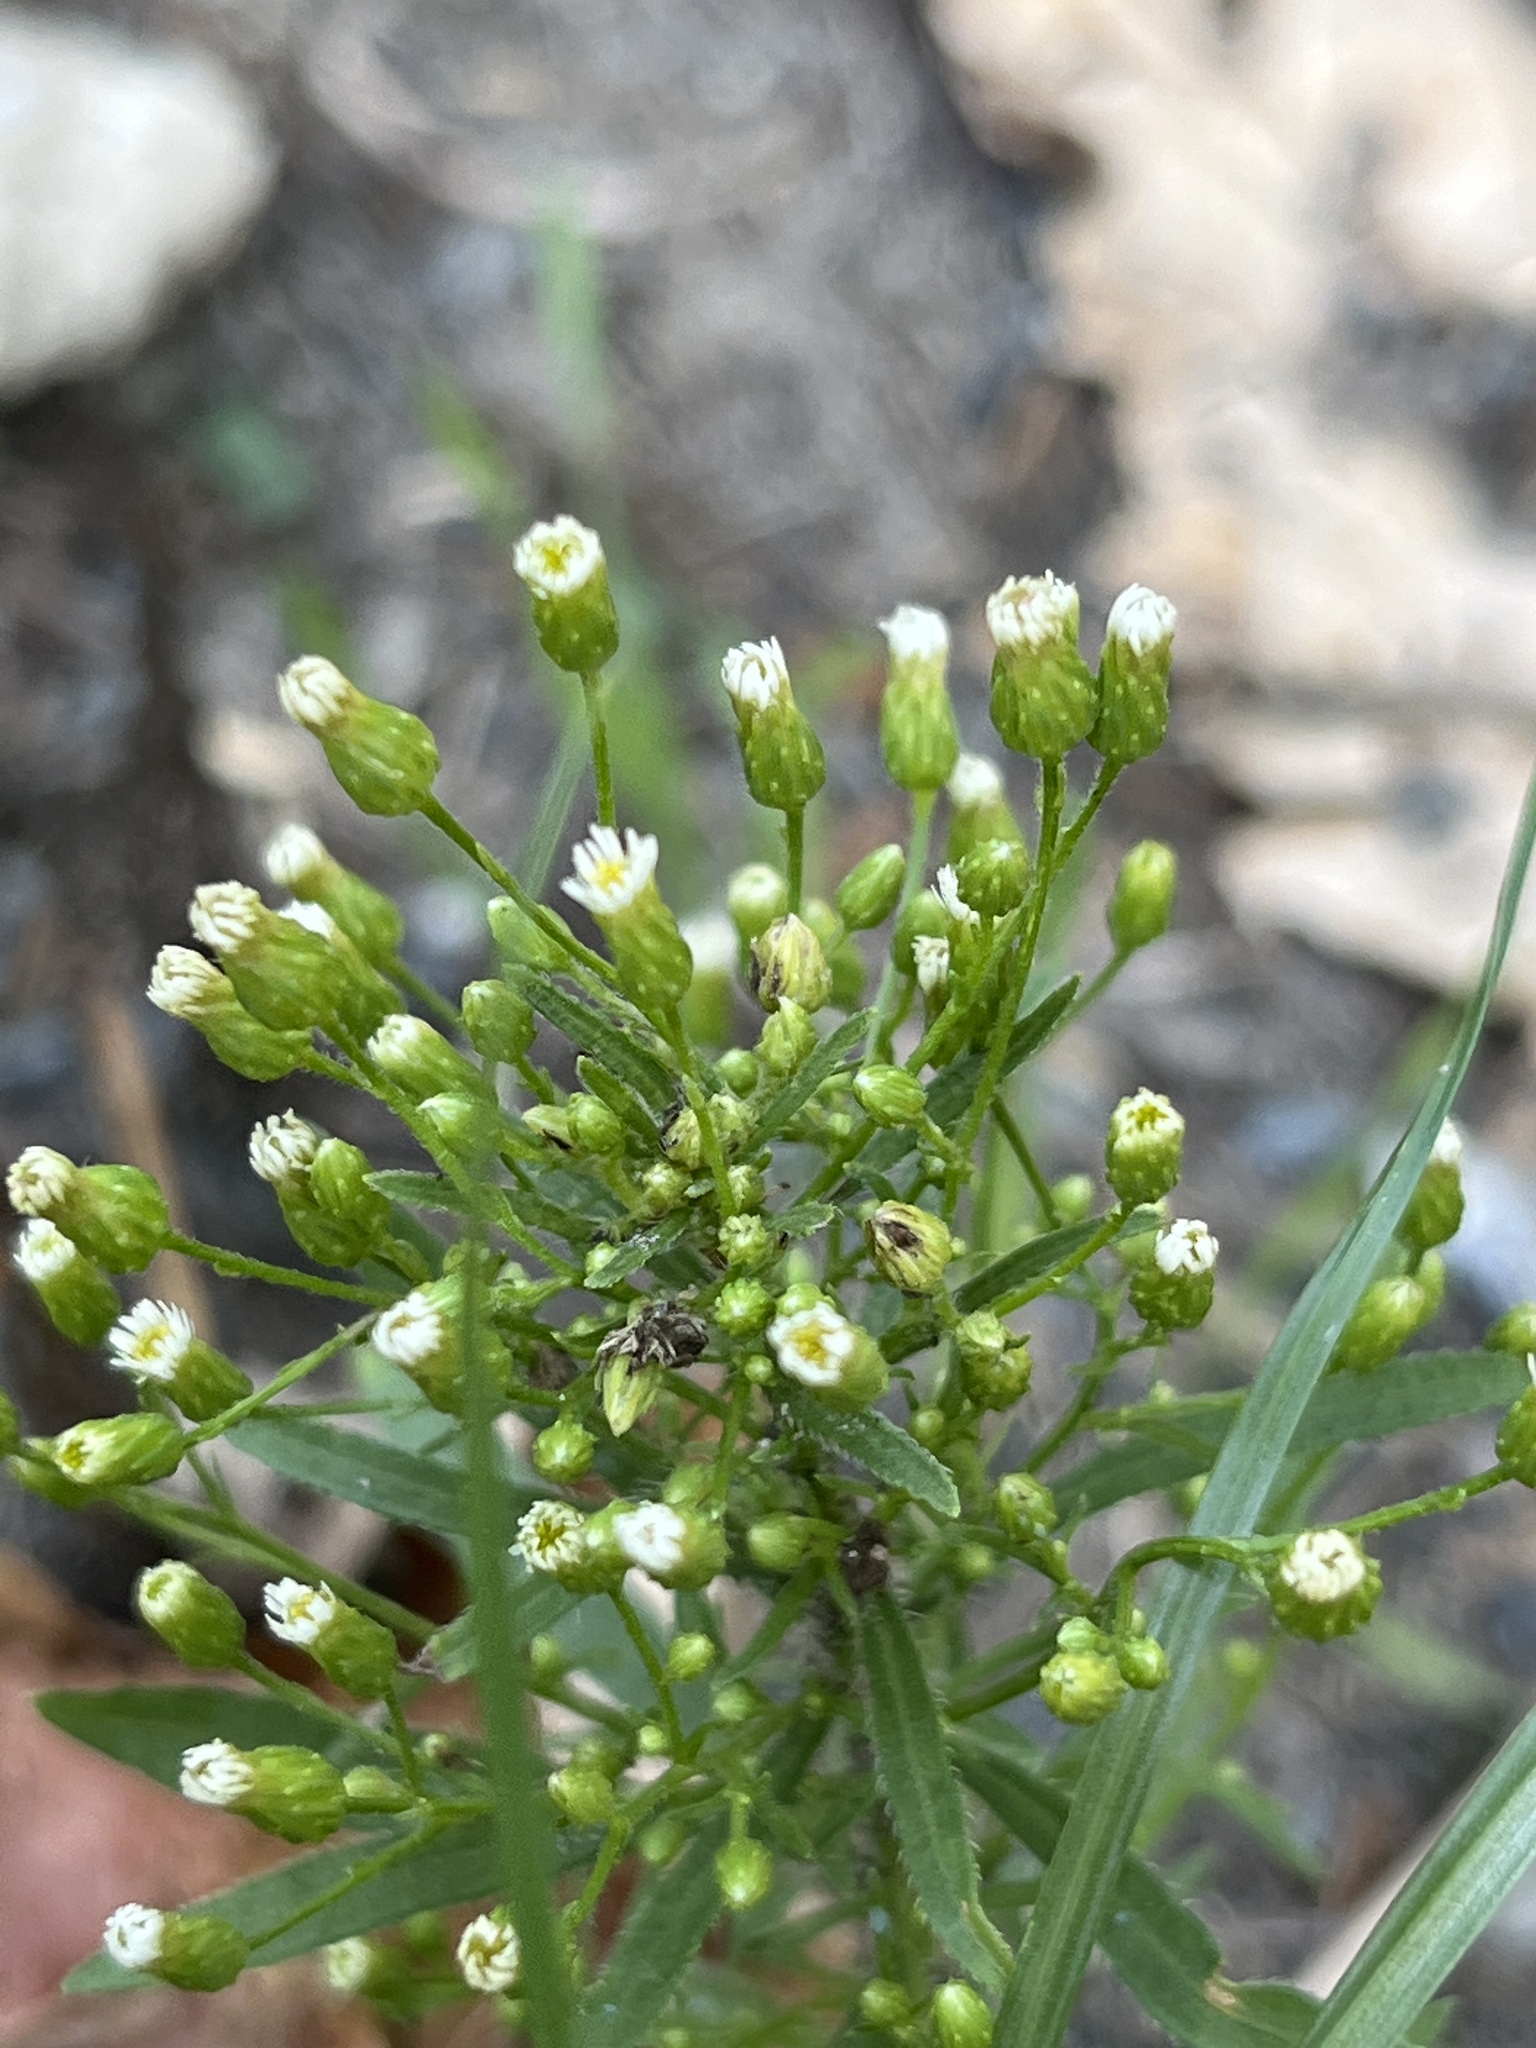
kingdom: Plantae
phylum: Tracheophyta
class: Magnoliopsida
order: Asterales
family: Asteraceae
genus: Erigeron
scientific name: Erigeron canadensis
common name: Canadian fleabane
